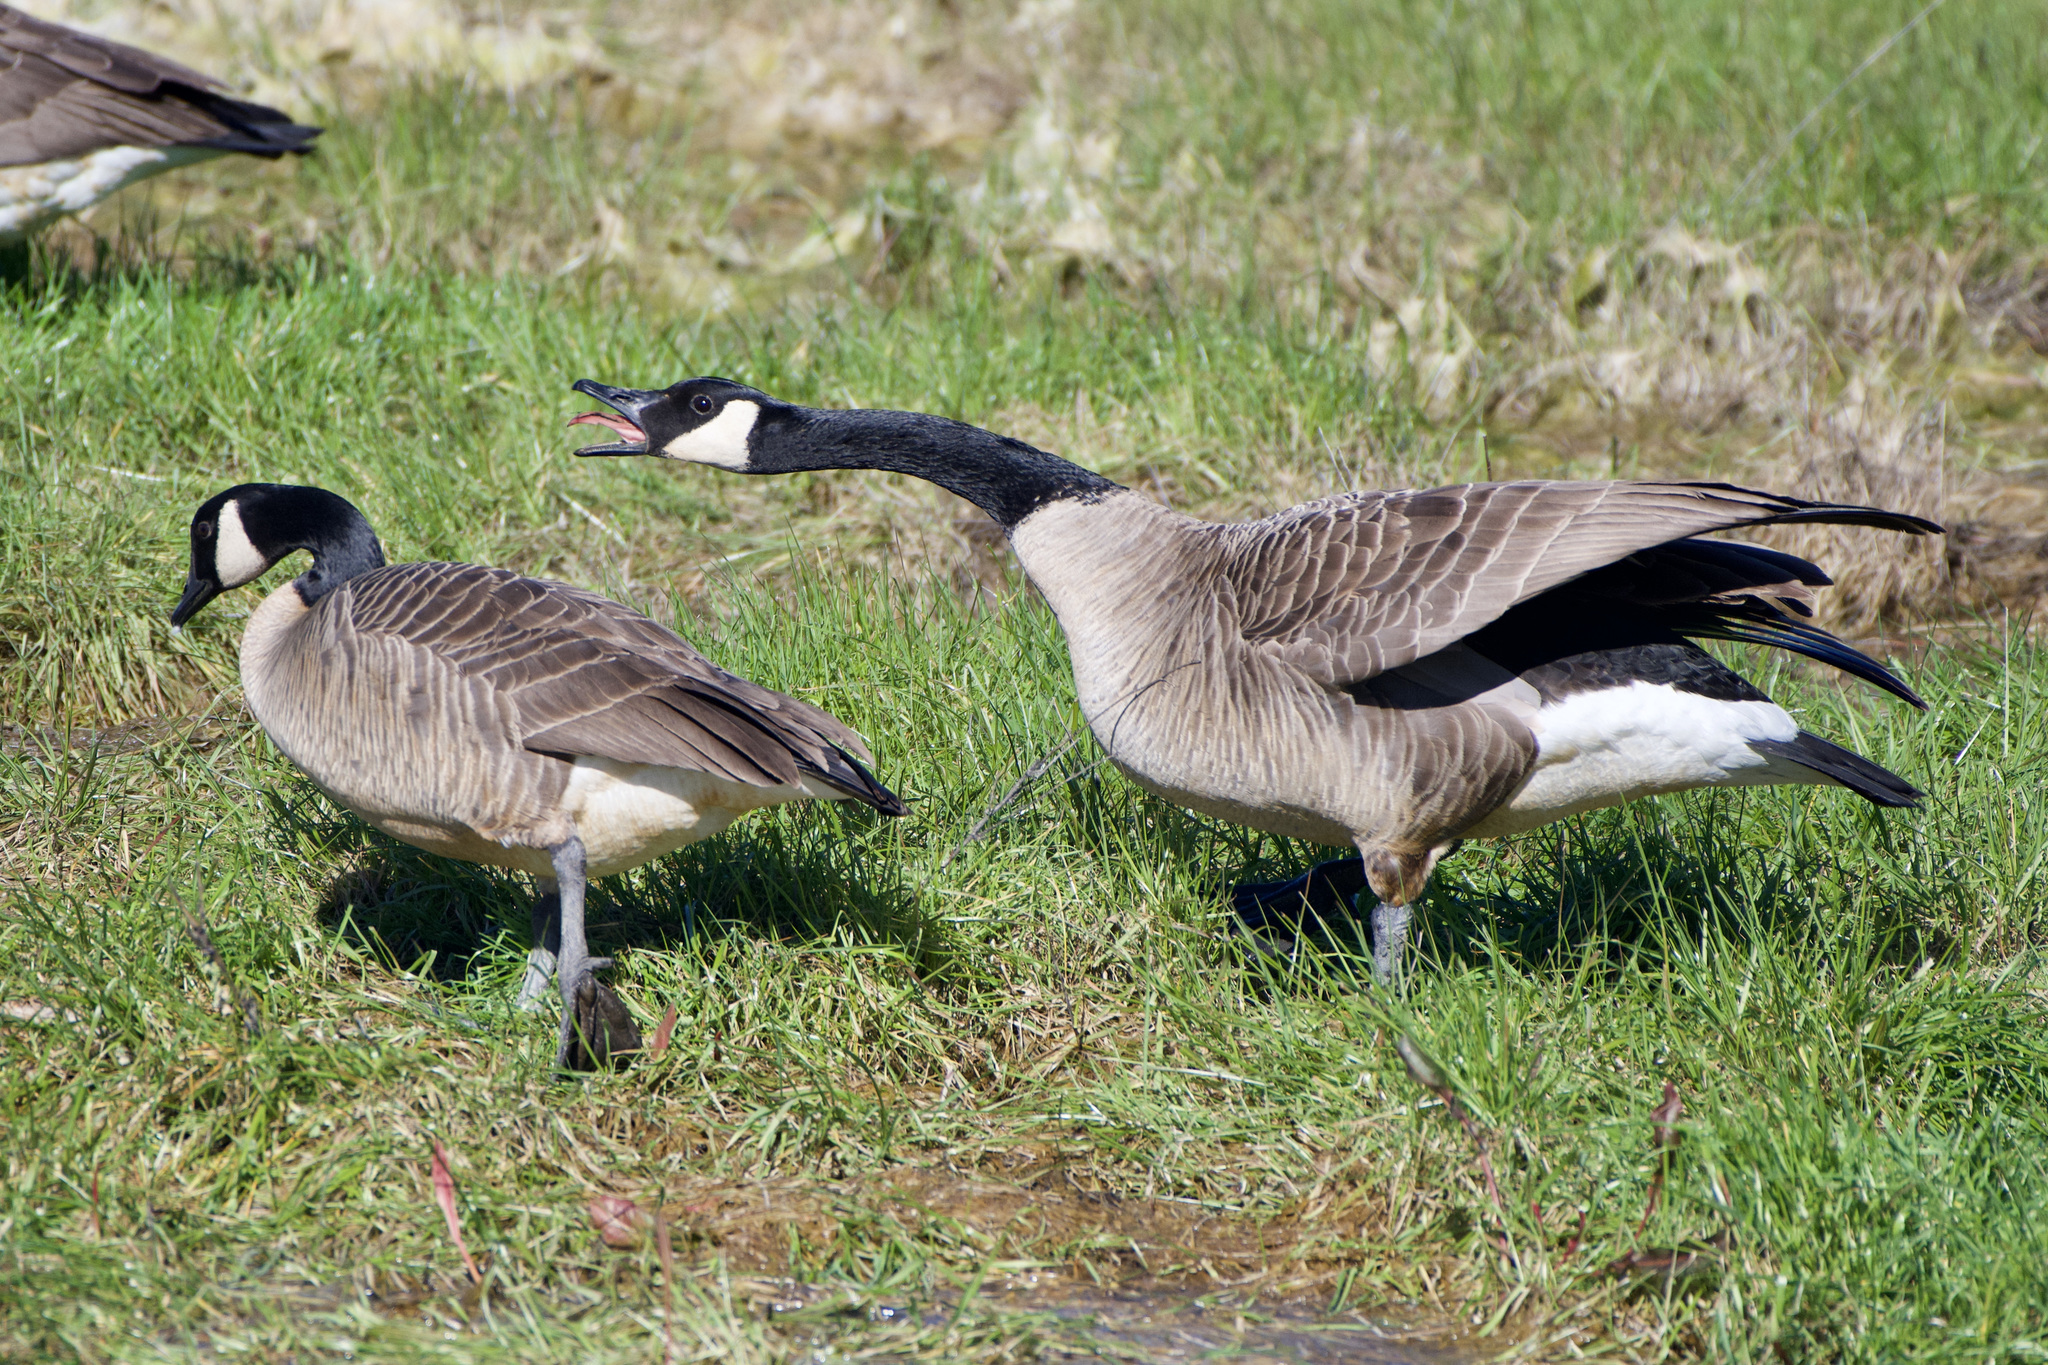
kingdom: Animalia
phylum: Chordata
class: Aves
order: Anseriformes
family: Anatidae
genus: Branta
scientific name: Branta canadensis
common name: Canada goose
